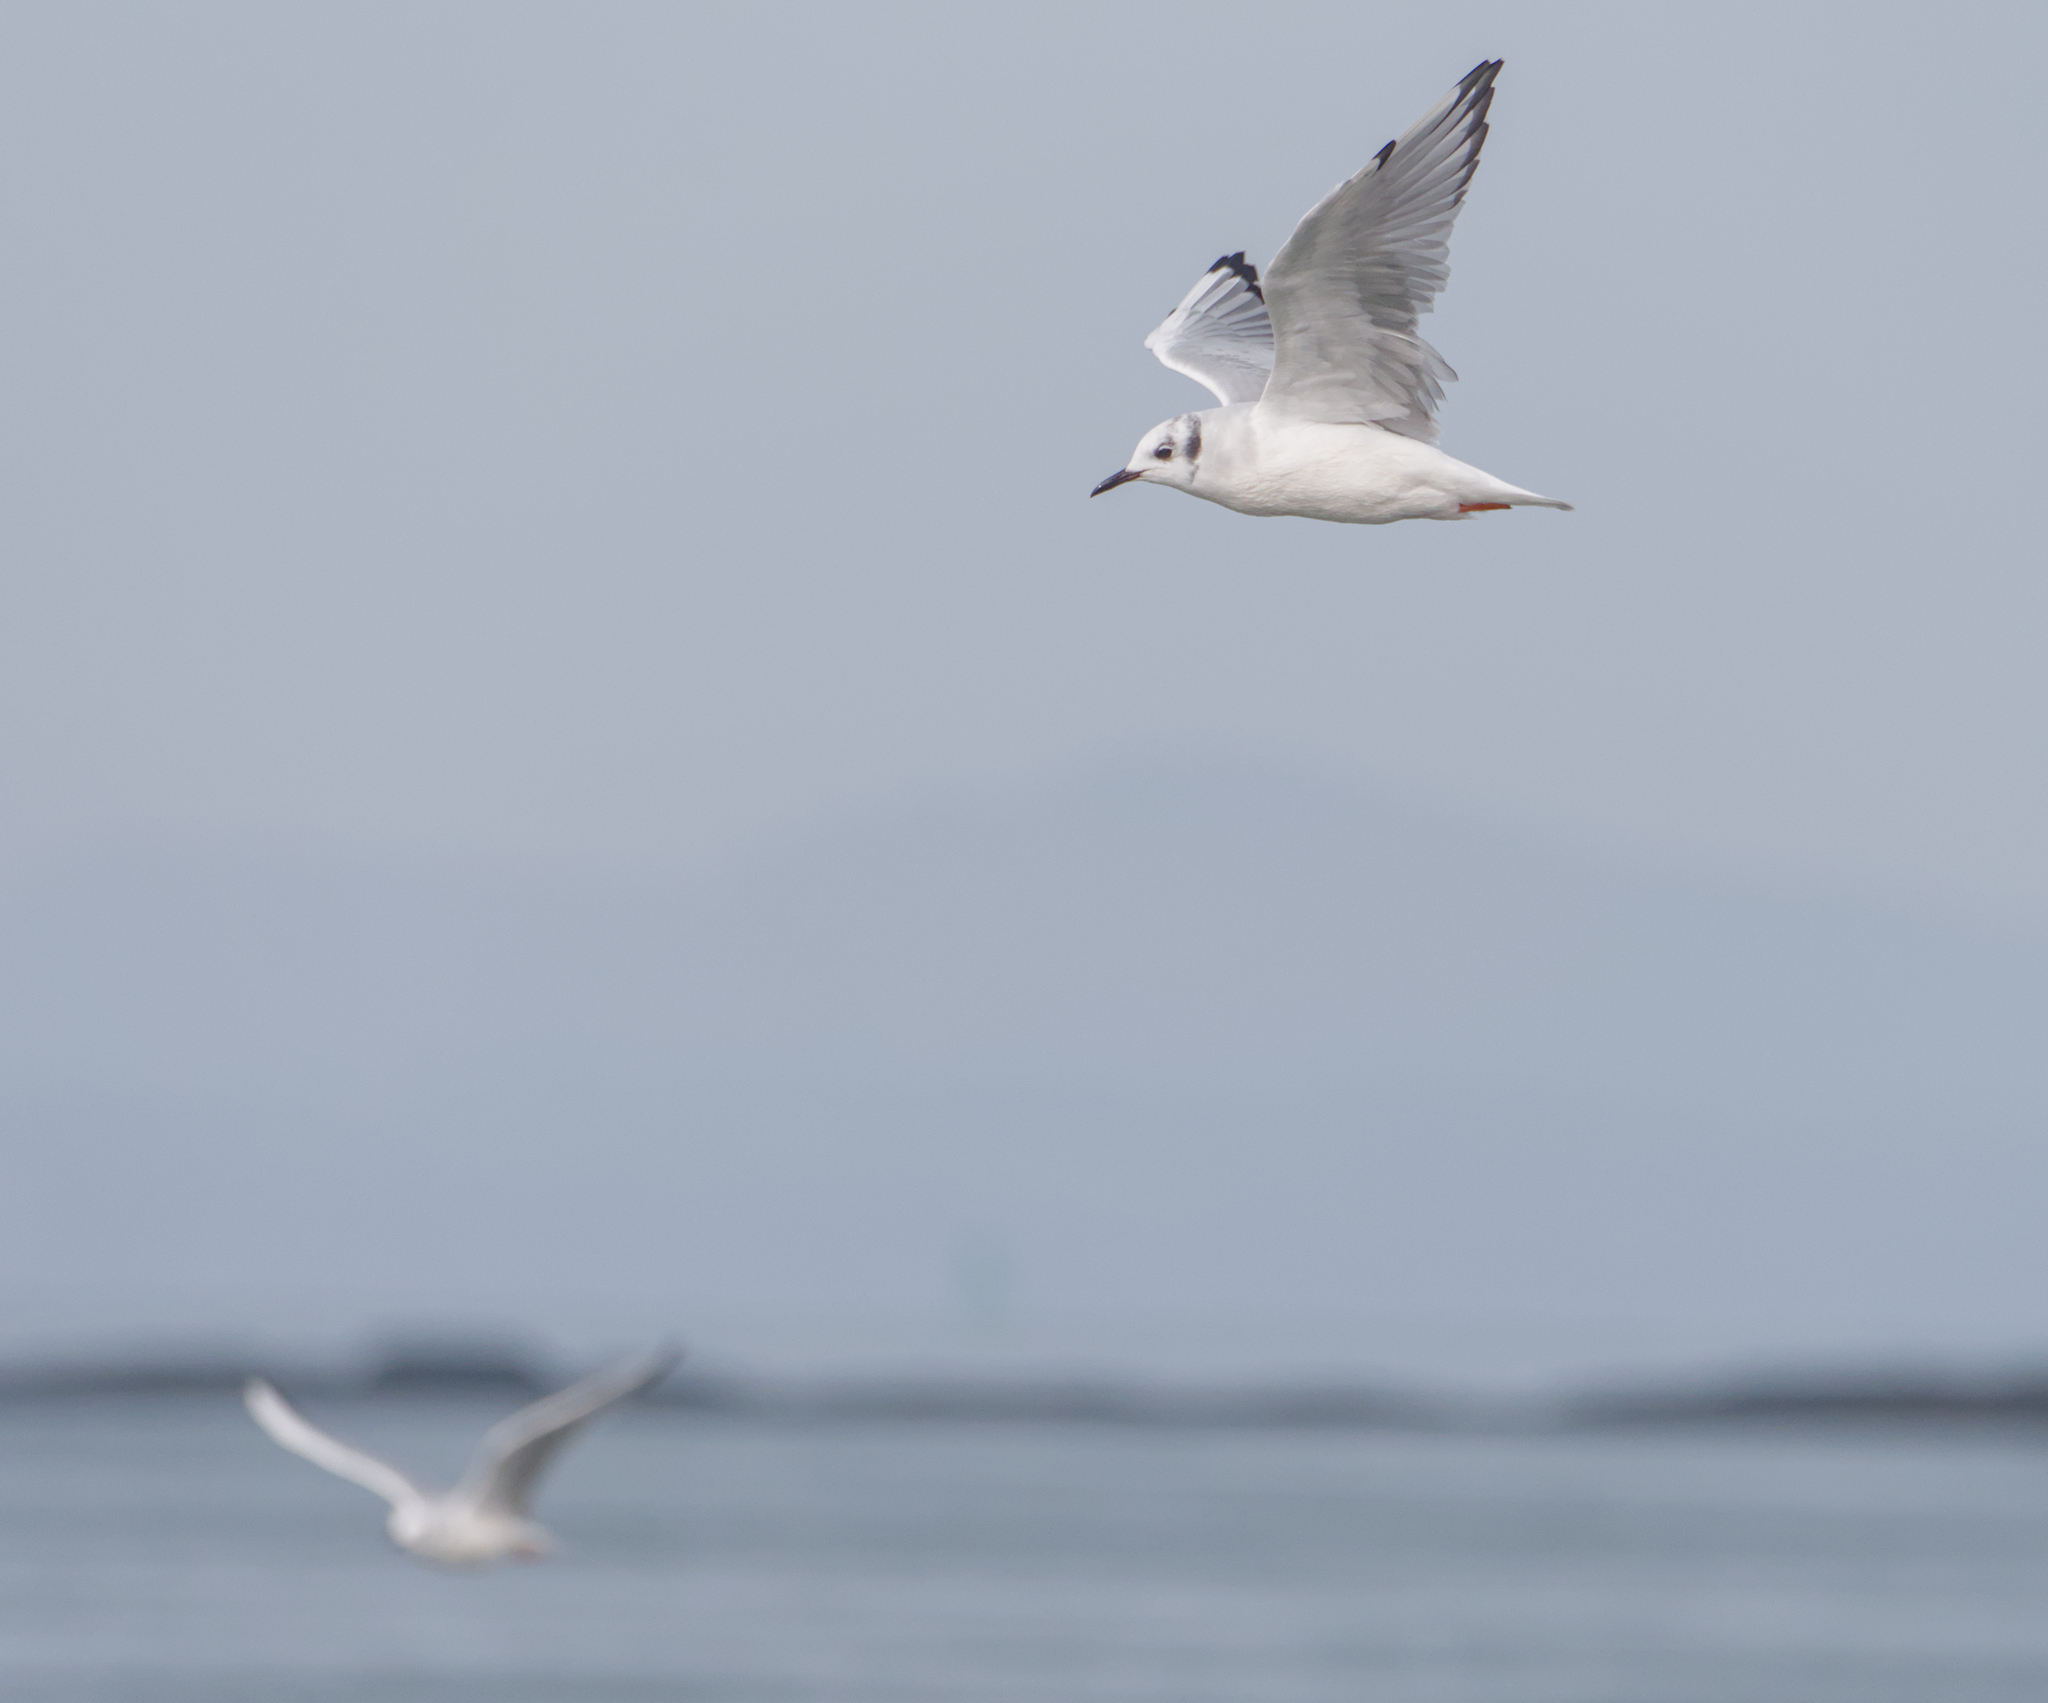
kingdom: Animalia
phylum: Chordata
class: Aves
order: Charadriiformes
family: Laridae
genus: Chroicocephalus
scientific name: Chroicocephalus philadelphia
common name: Bonaparte's gull
